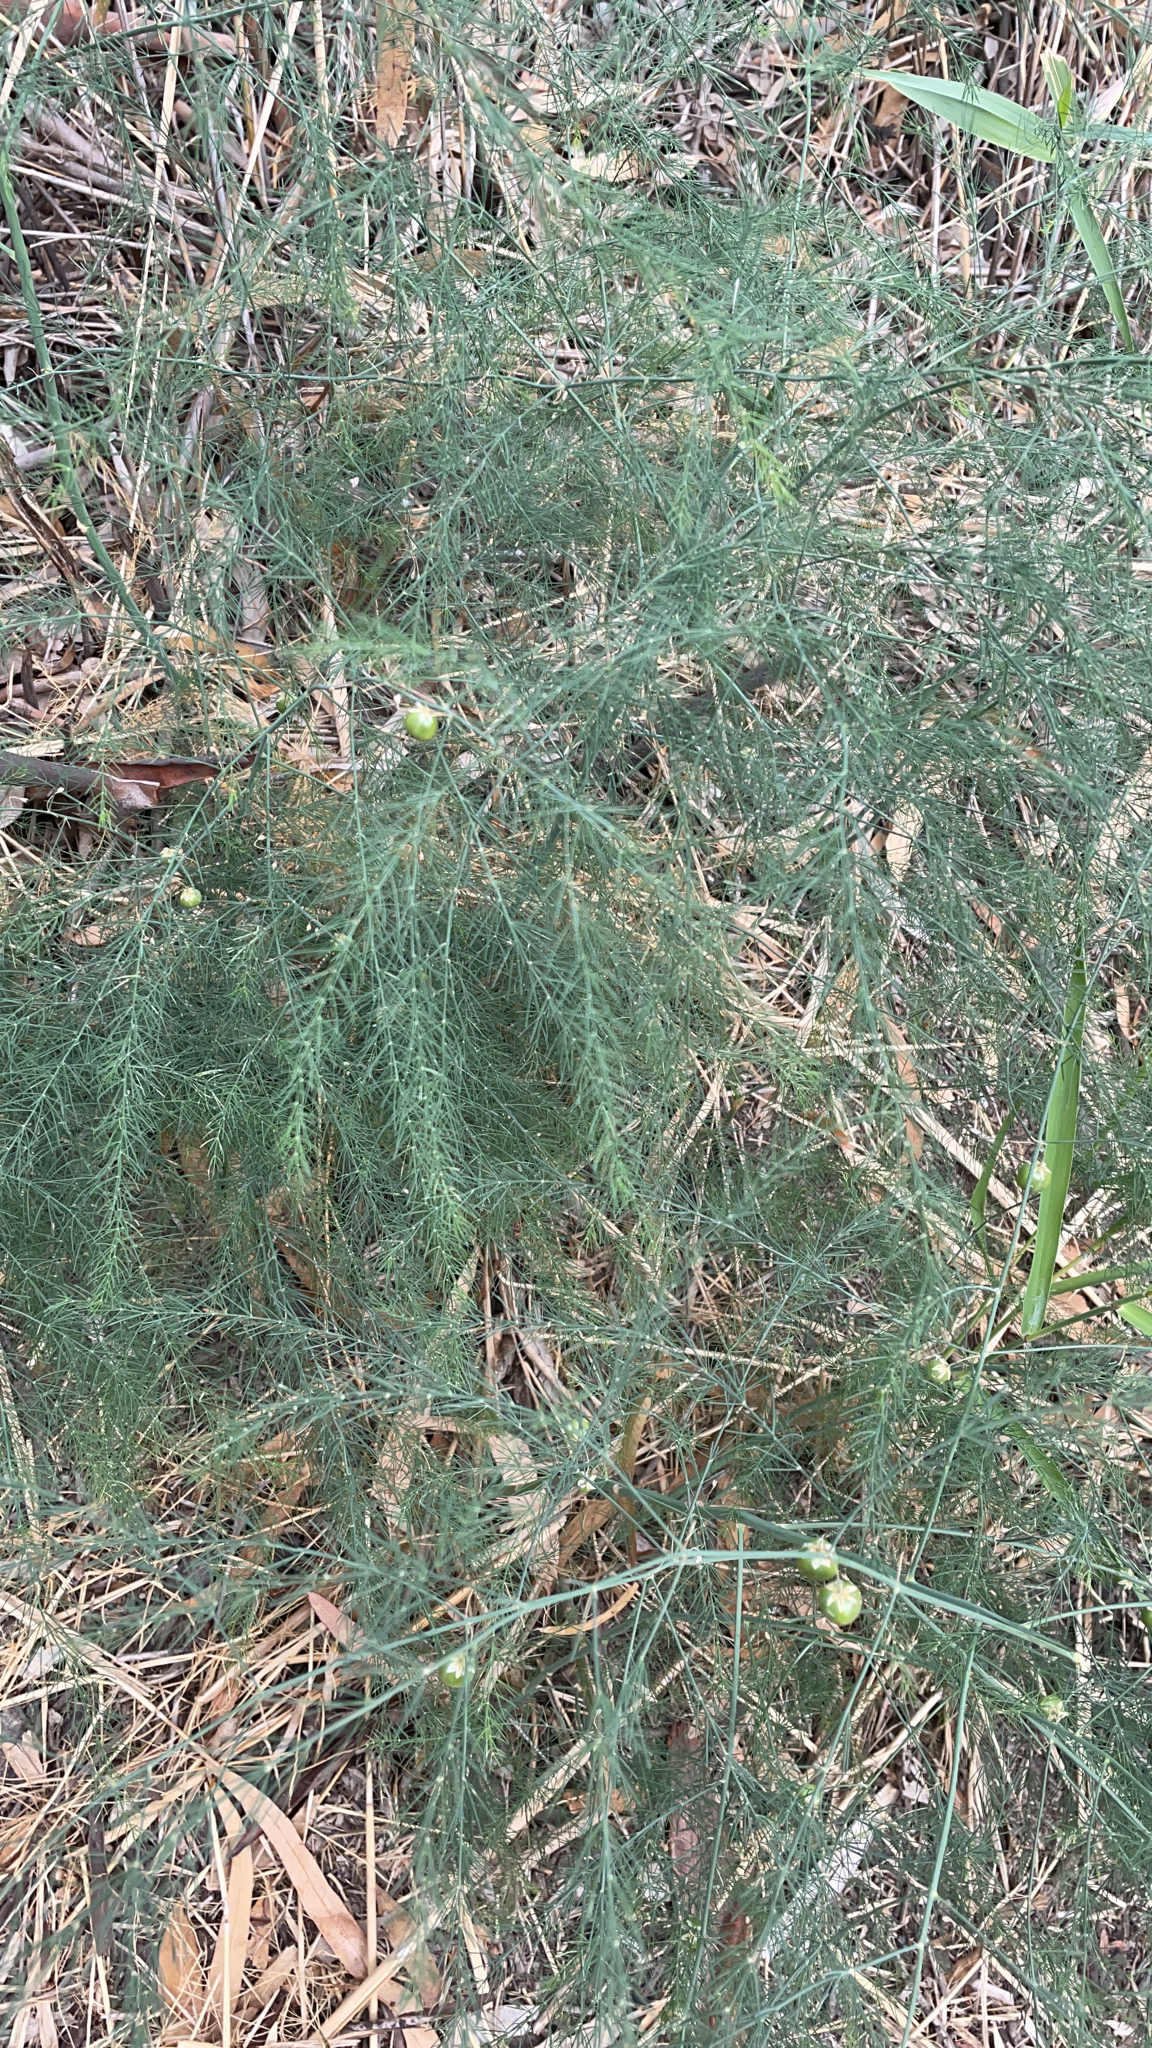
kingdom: Plantae
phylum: Tracheophyta
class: Liliopsida
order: Asparagales
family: Asparagaceae
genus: Asparagus
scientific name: Asparagus officinalis
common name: Garden asparagus
